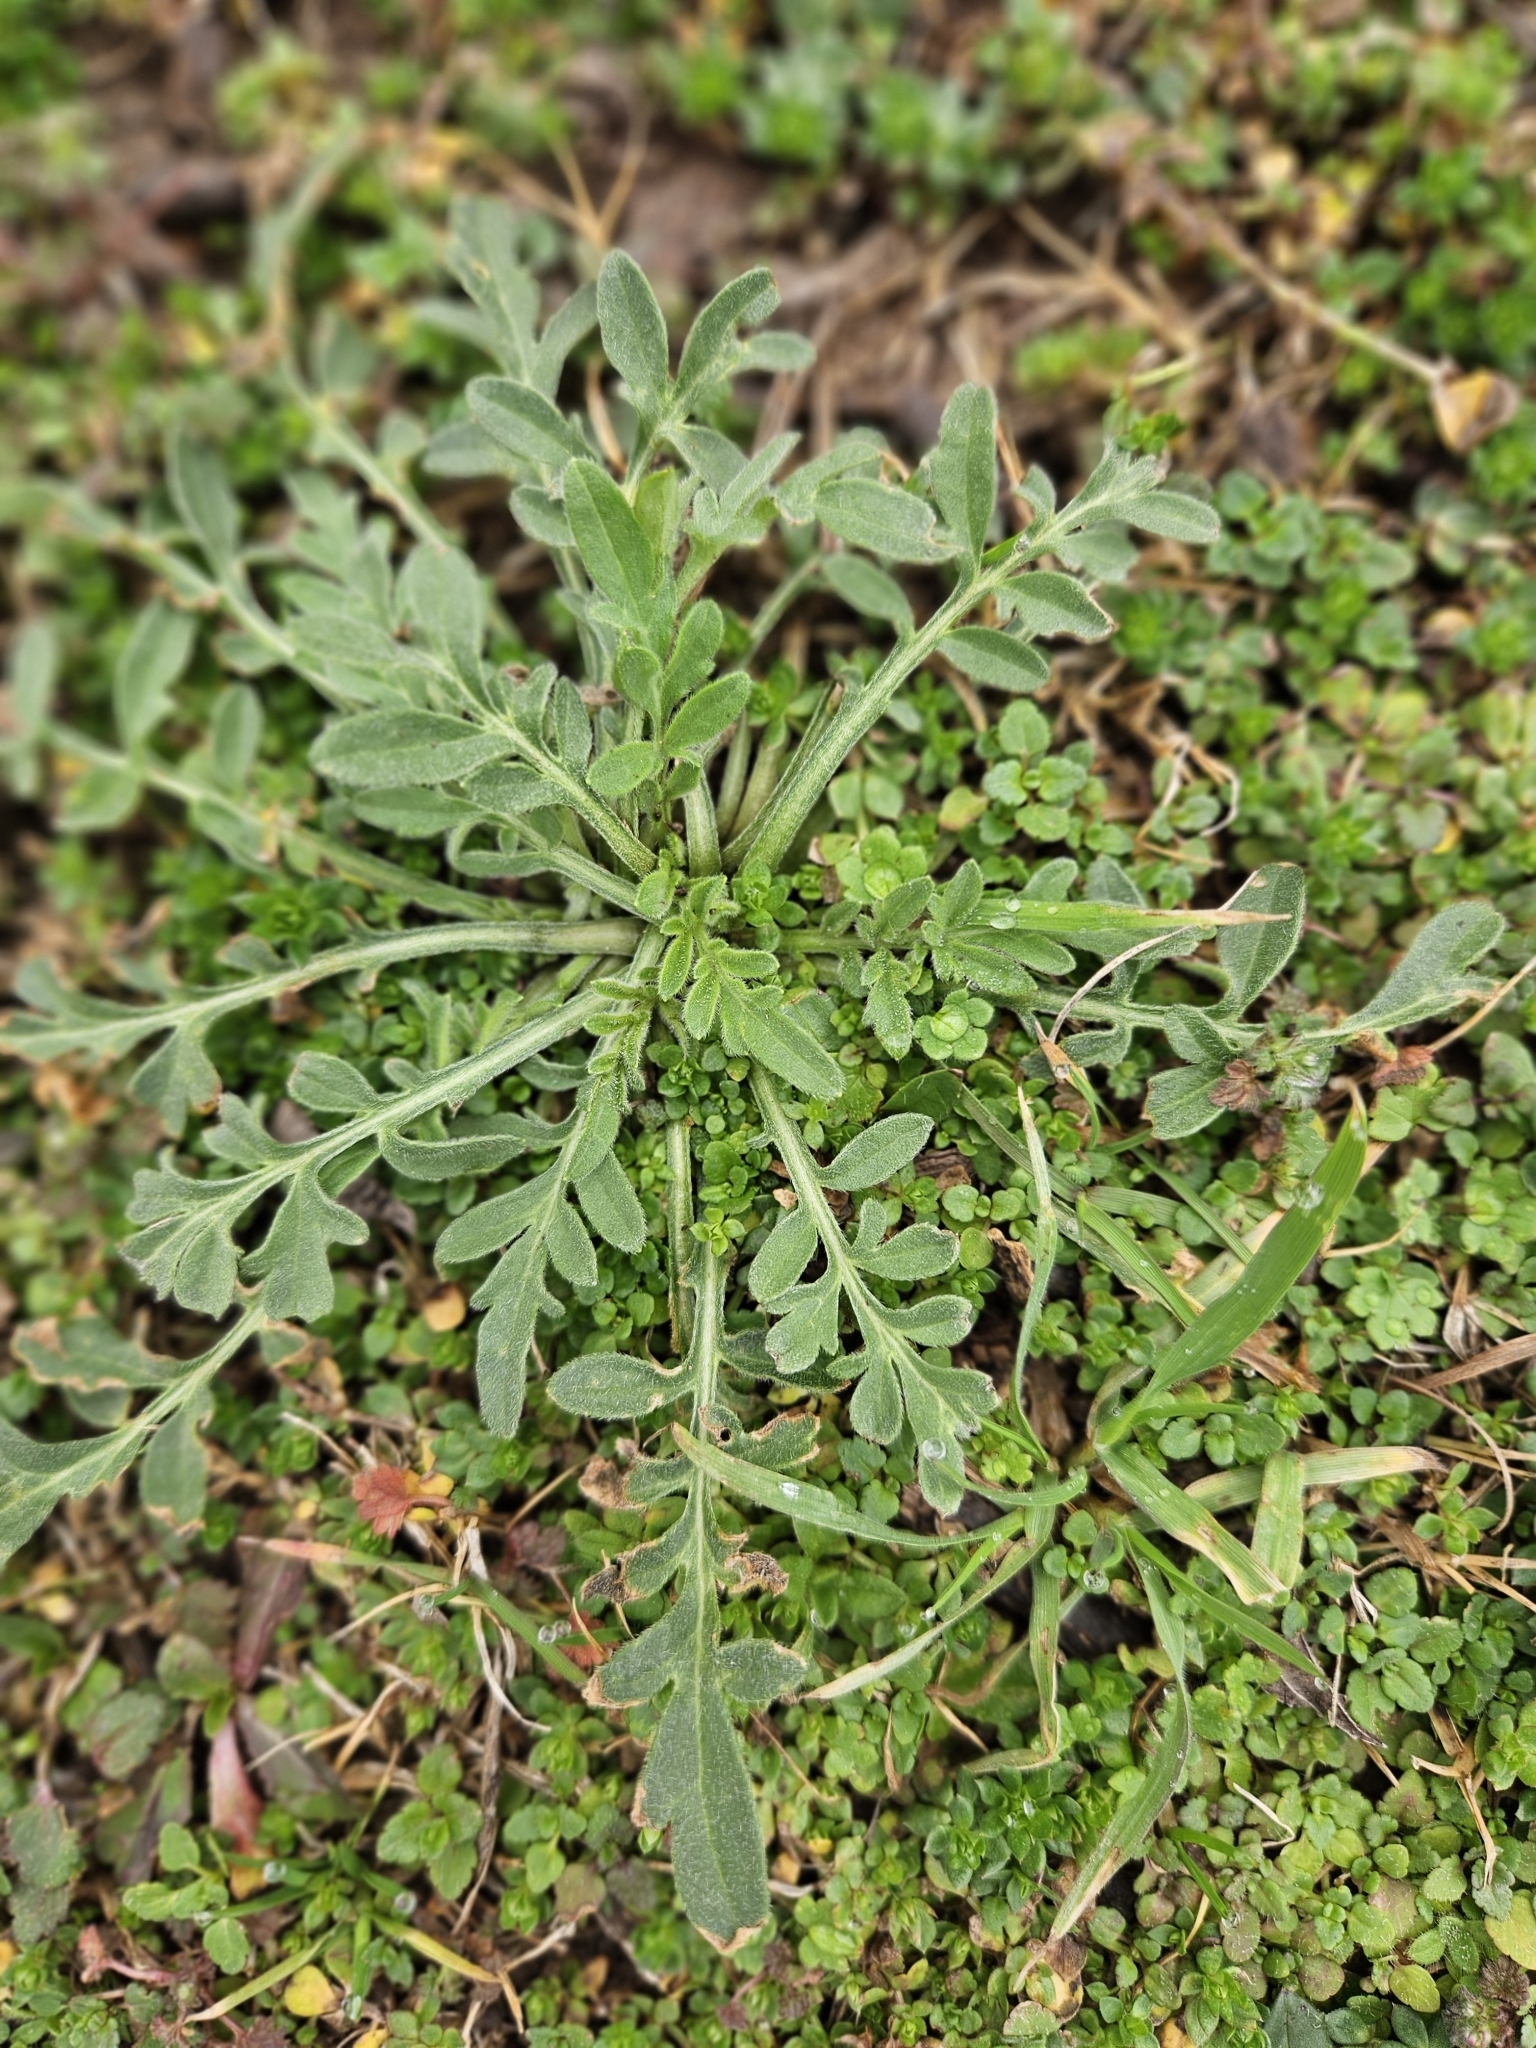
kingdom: Plantae
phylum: Tracheophyta
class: Magnoliopsida
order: Asterales
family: Asteraceae
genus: Ratibida
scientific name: Ratibida columnifera
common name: Prairie coneflower
